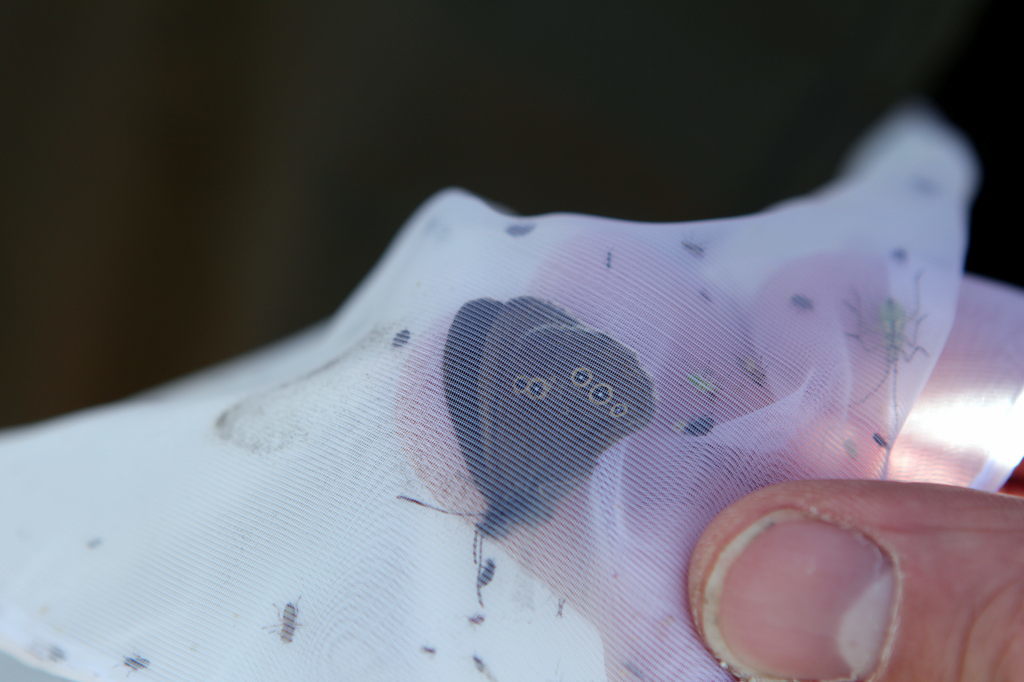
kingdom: Animalia
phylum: Arthropoda
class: Insecta
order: Lepidoptera
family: Nymphalidae
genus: Aphantopus
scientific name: Aphantopus hyperantus
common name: Ringlet
